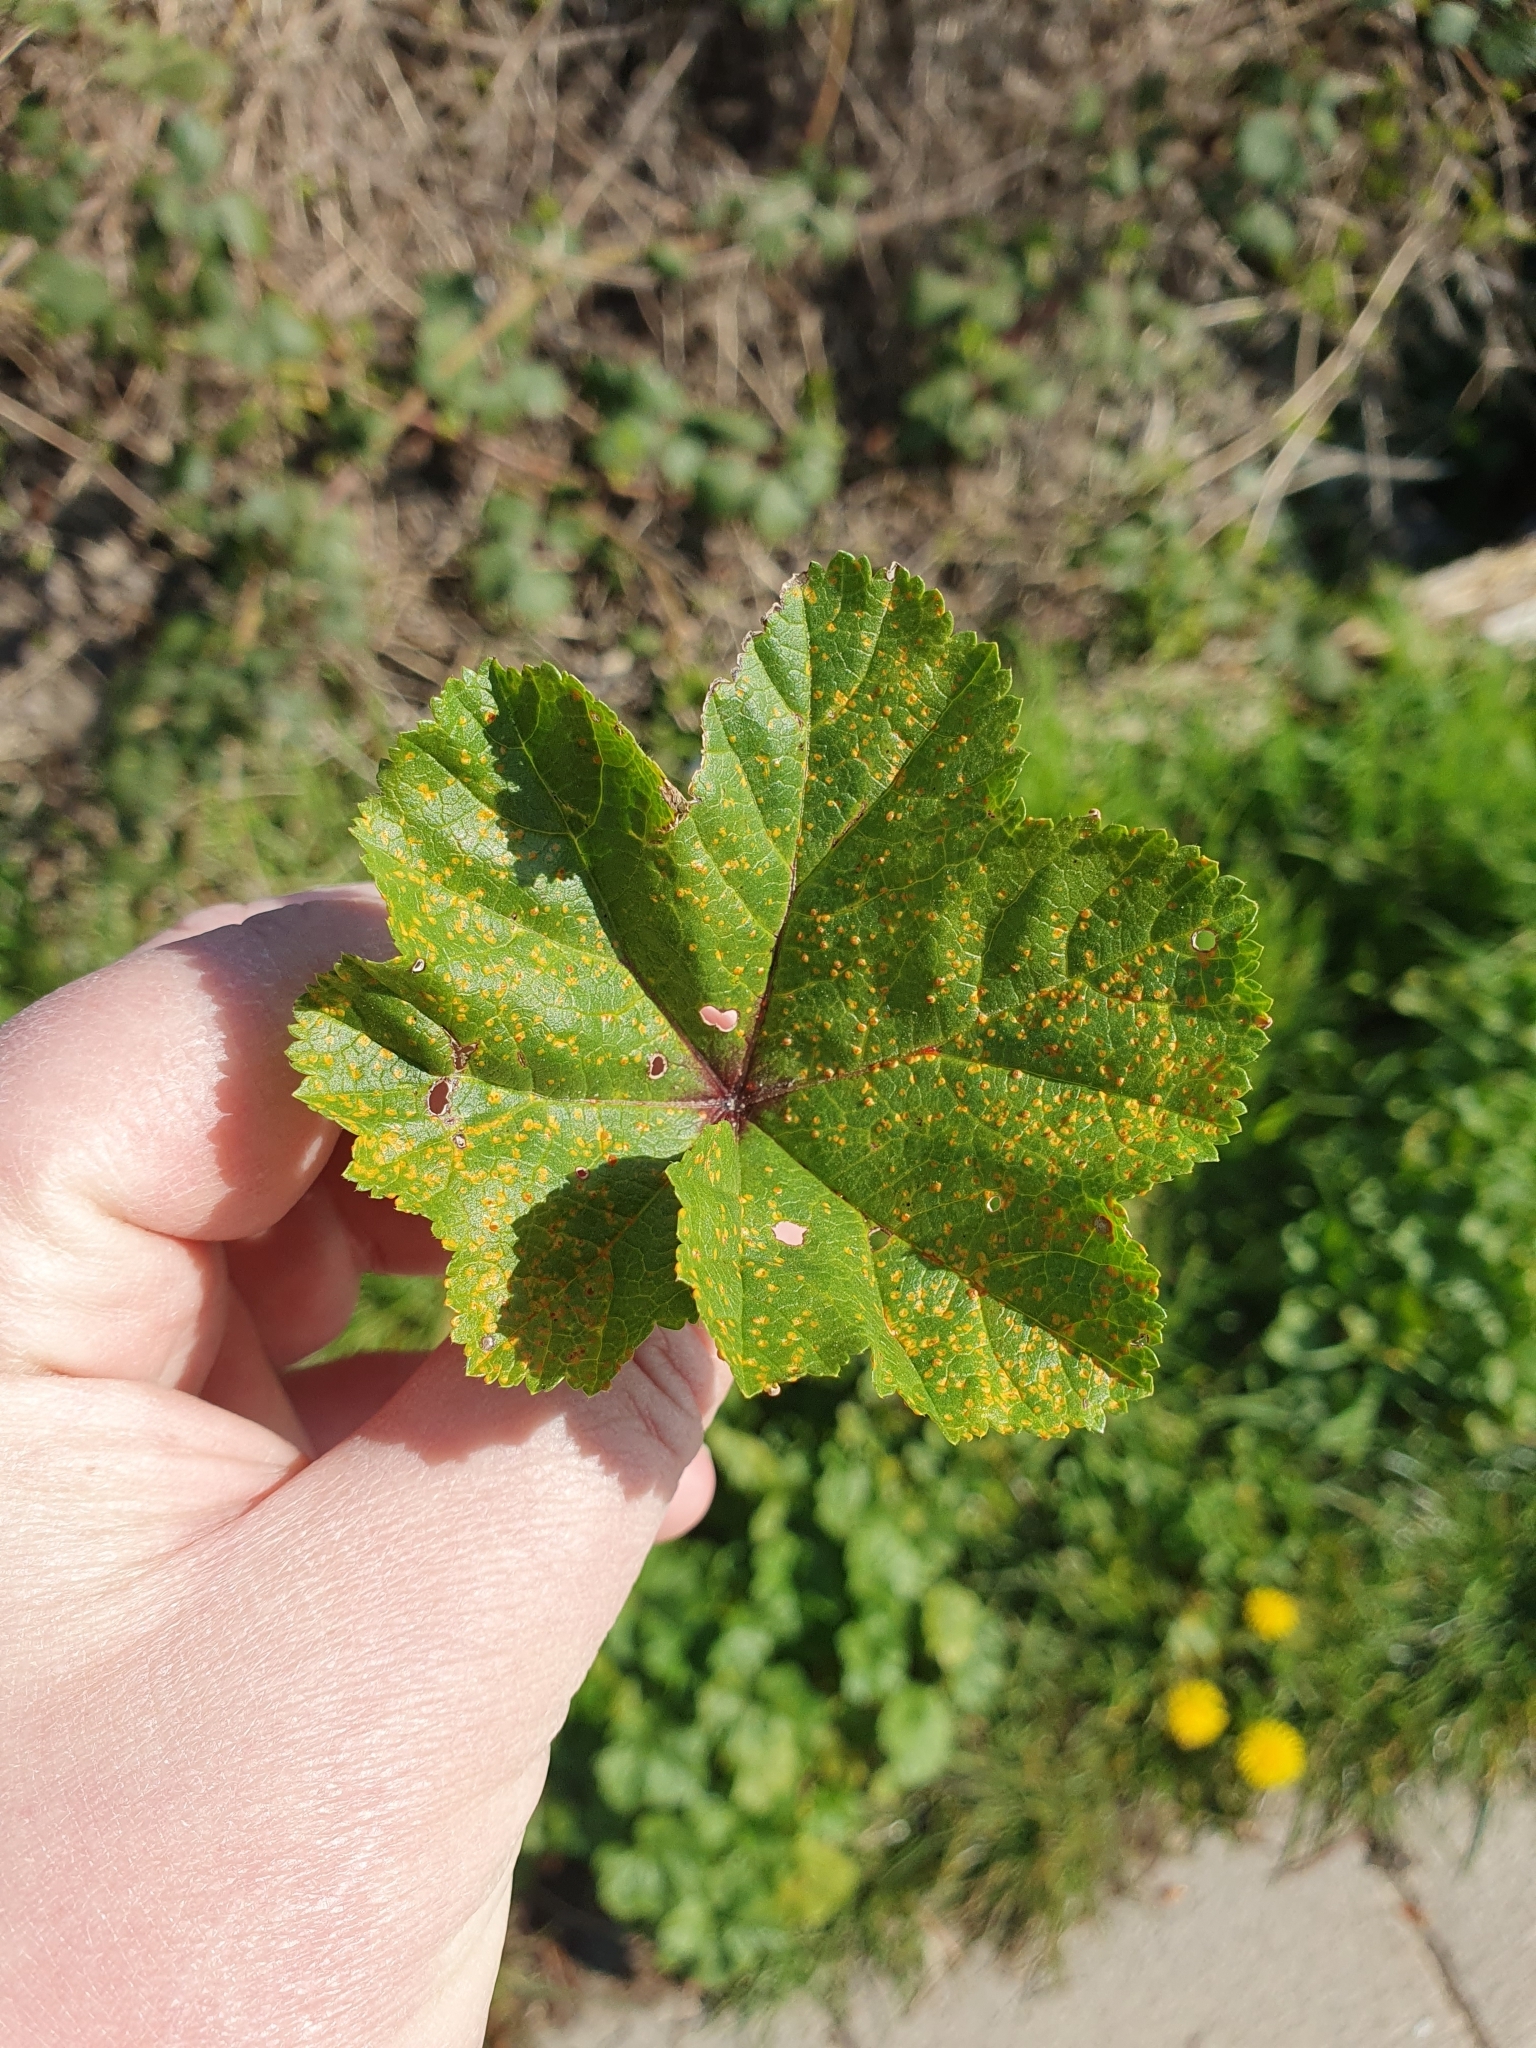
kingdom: Fungi
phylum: Basidiomycota
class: Pucciniomycetes
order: Pucciniales
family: Pucciniaceae
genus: Puccinia
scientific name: Puccinia malvacearum
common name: Hollyhock rust
